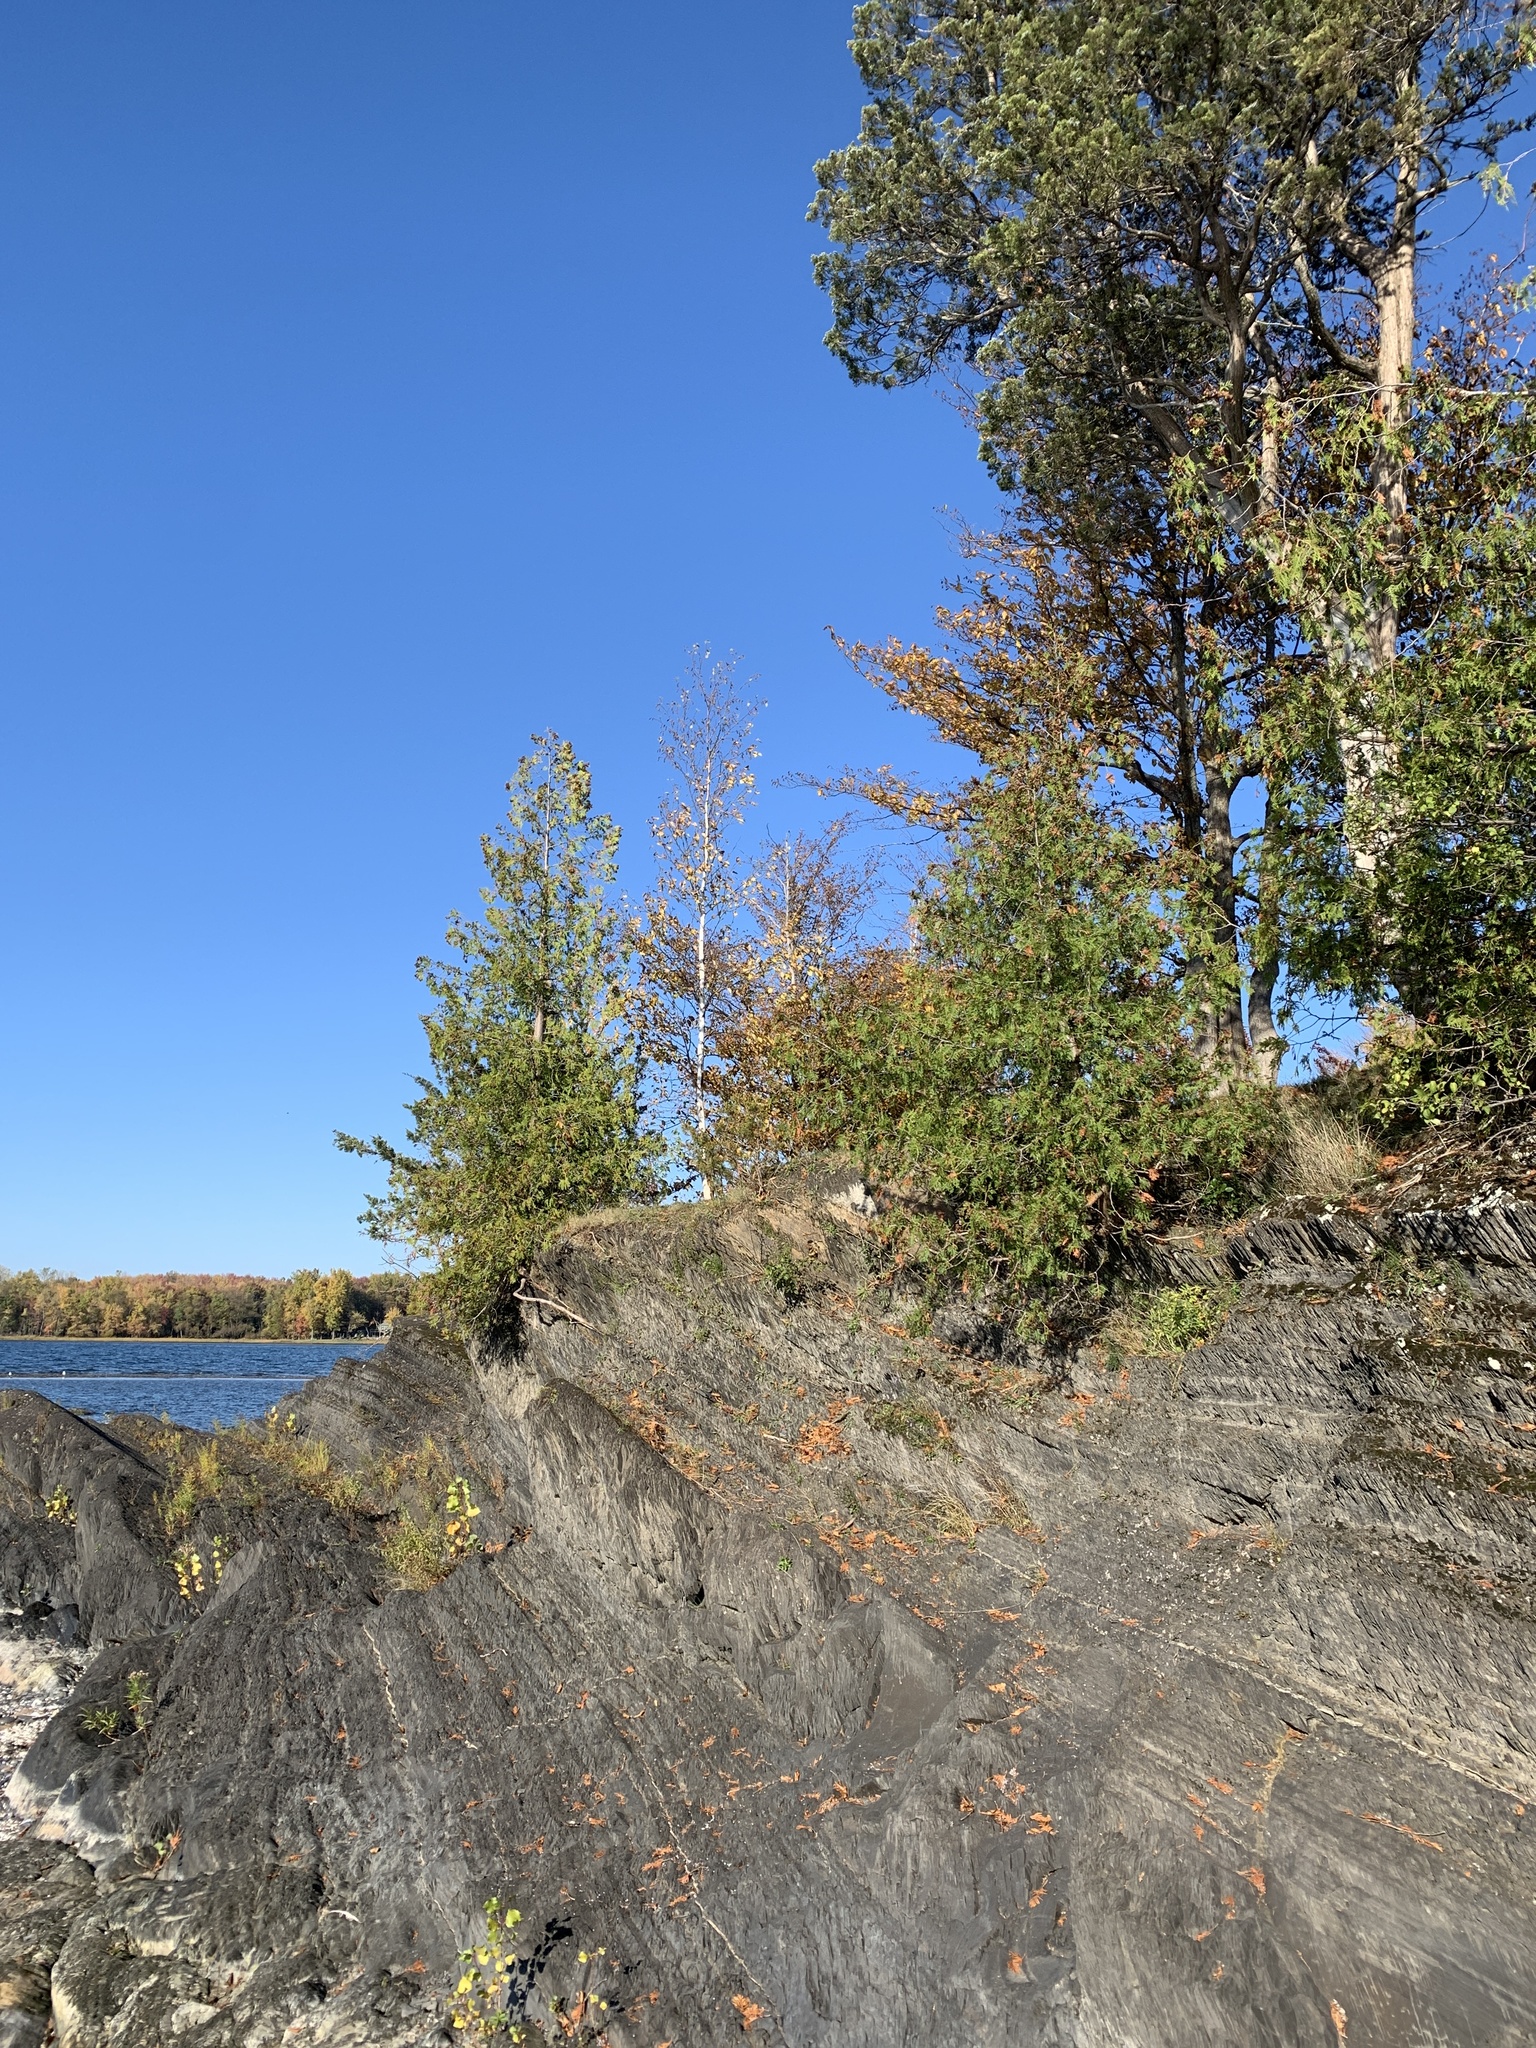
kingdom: Plantae
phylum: Tracheophyta
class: Pinopsida
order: Pinales
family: Cupressaceae
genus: Thuja
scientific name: Thuja occidentalis
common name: Northern white-cedar
